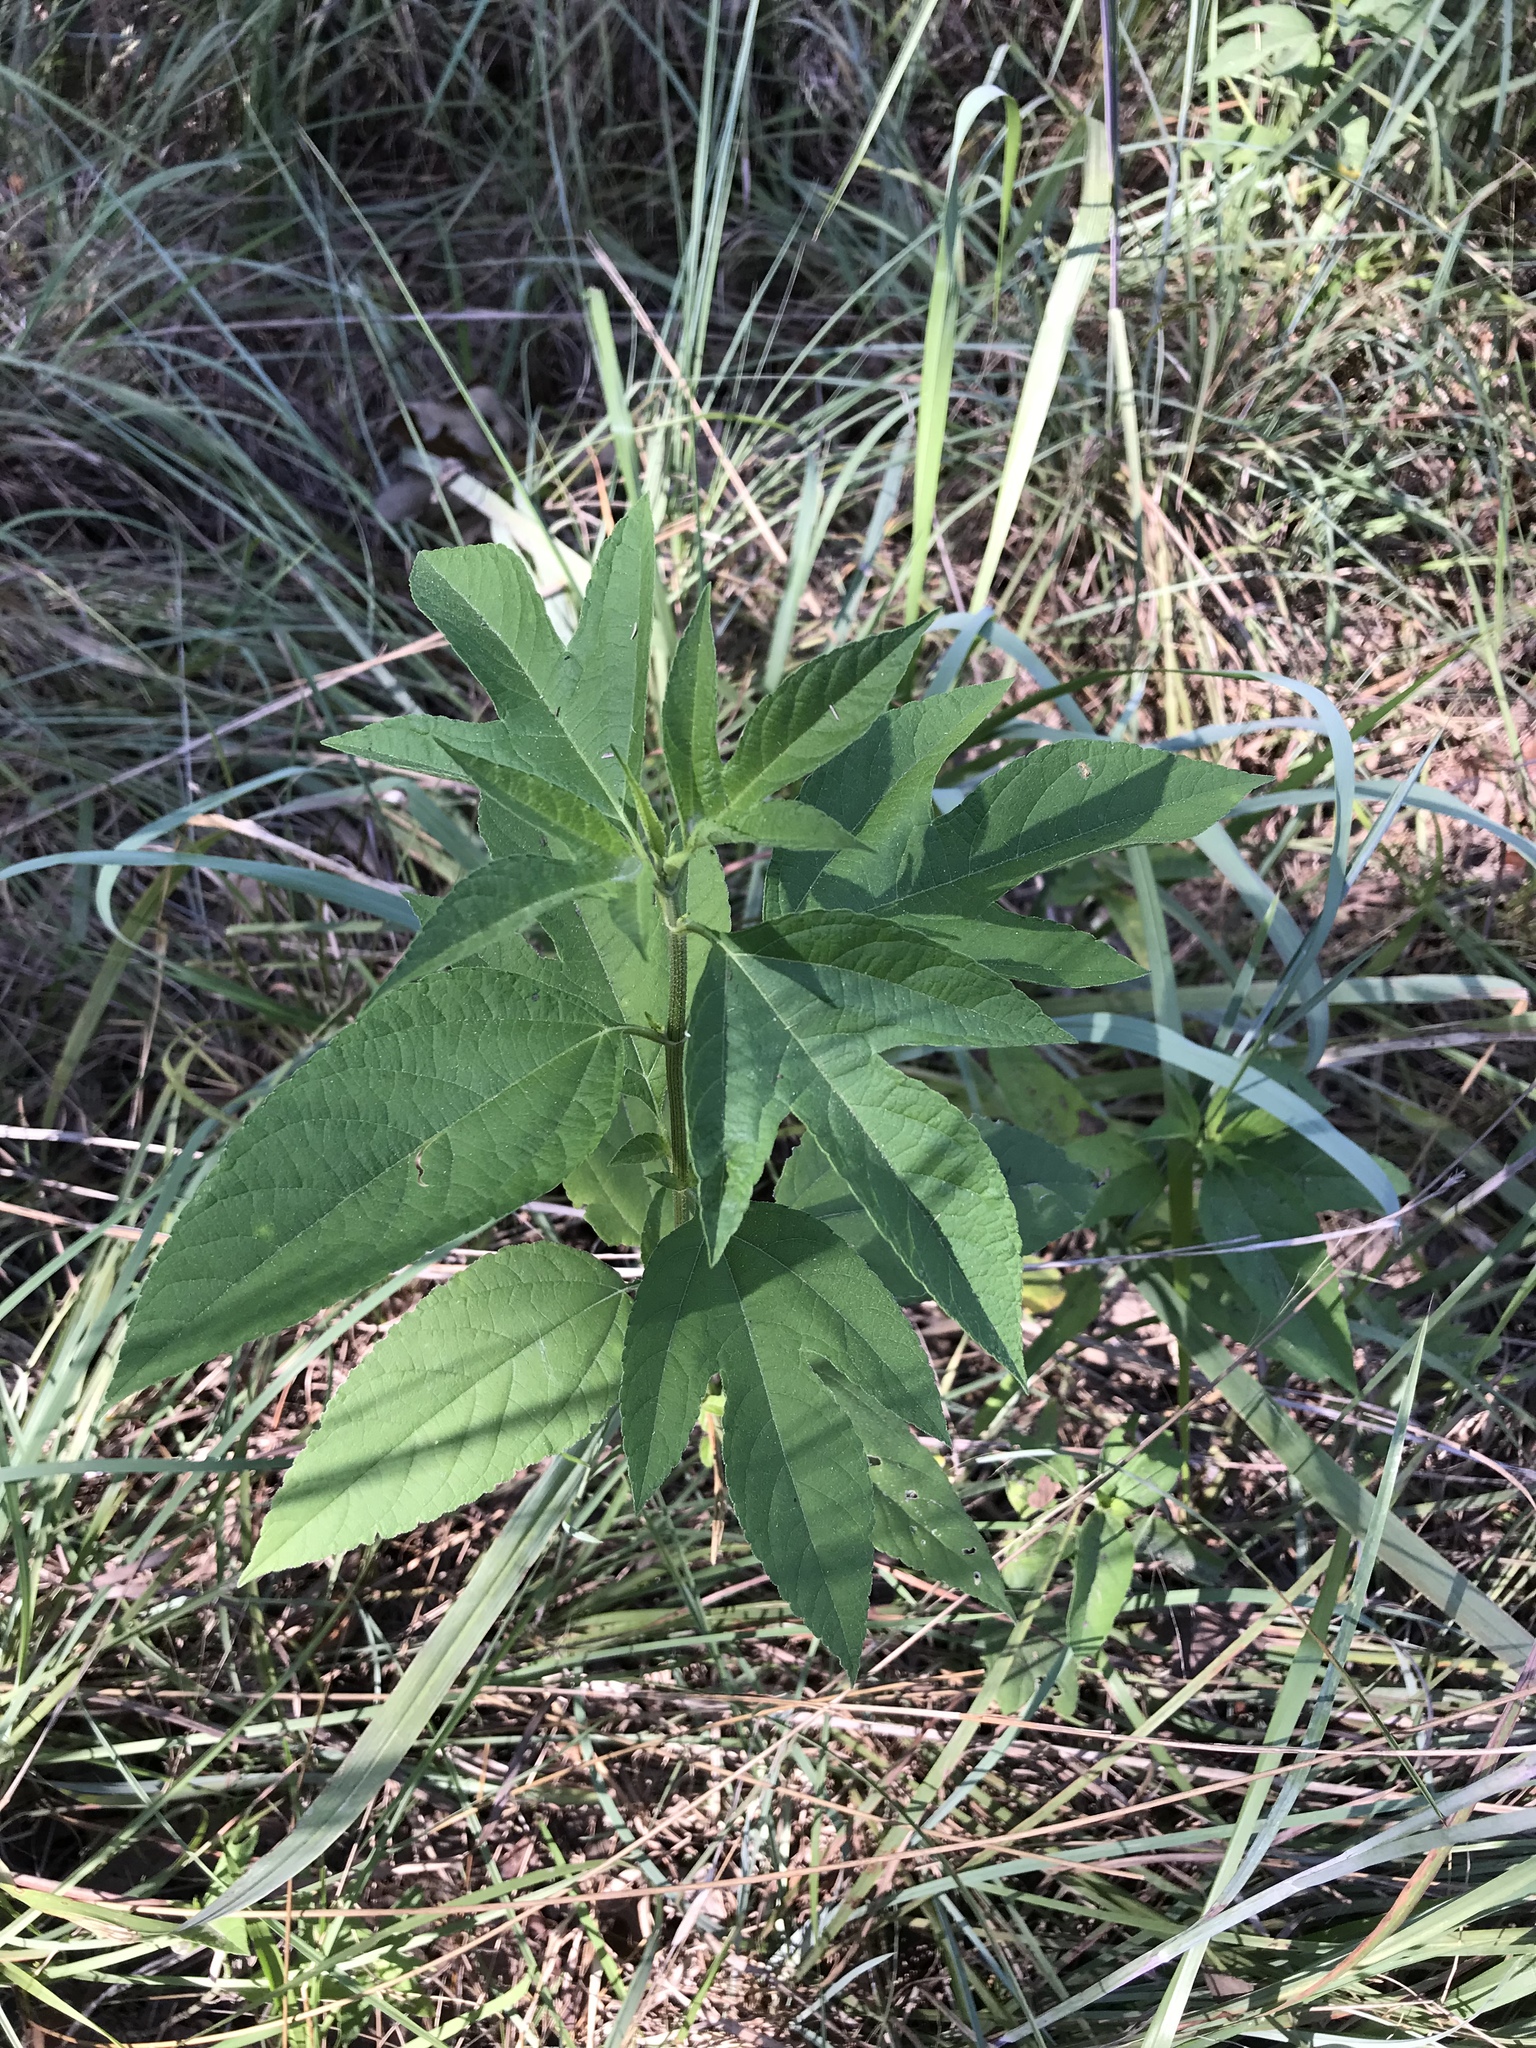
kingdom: Plantae
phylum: Tracheophyta
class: Magnoliopsida
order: Asterales
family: Asteraceae
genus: Ambrosia
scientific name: Ambrosia trifida
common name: Giant ragweed
